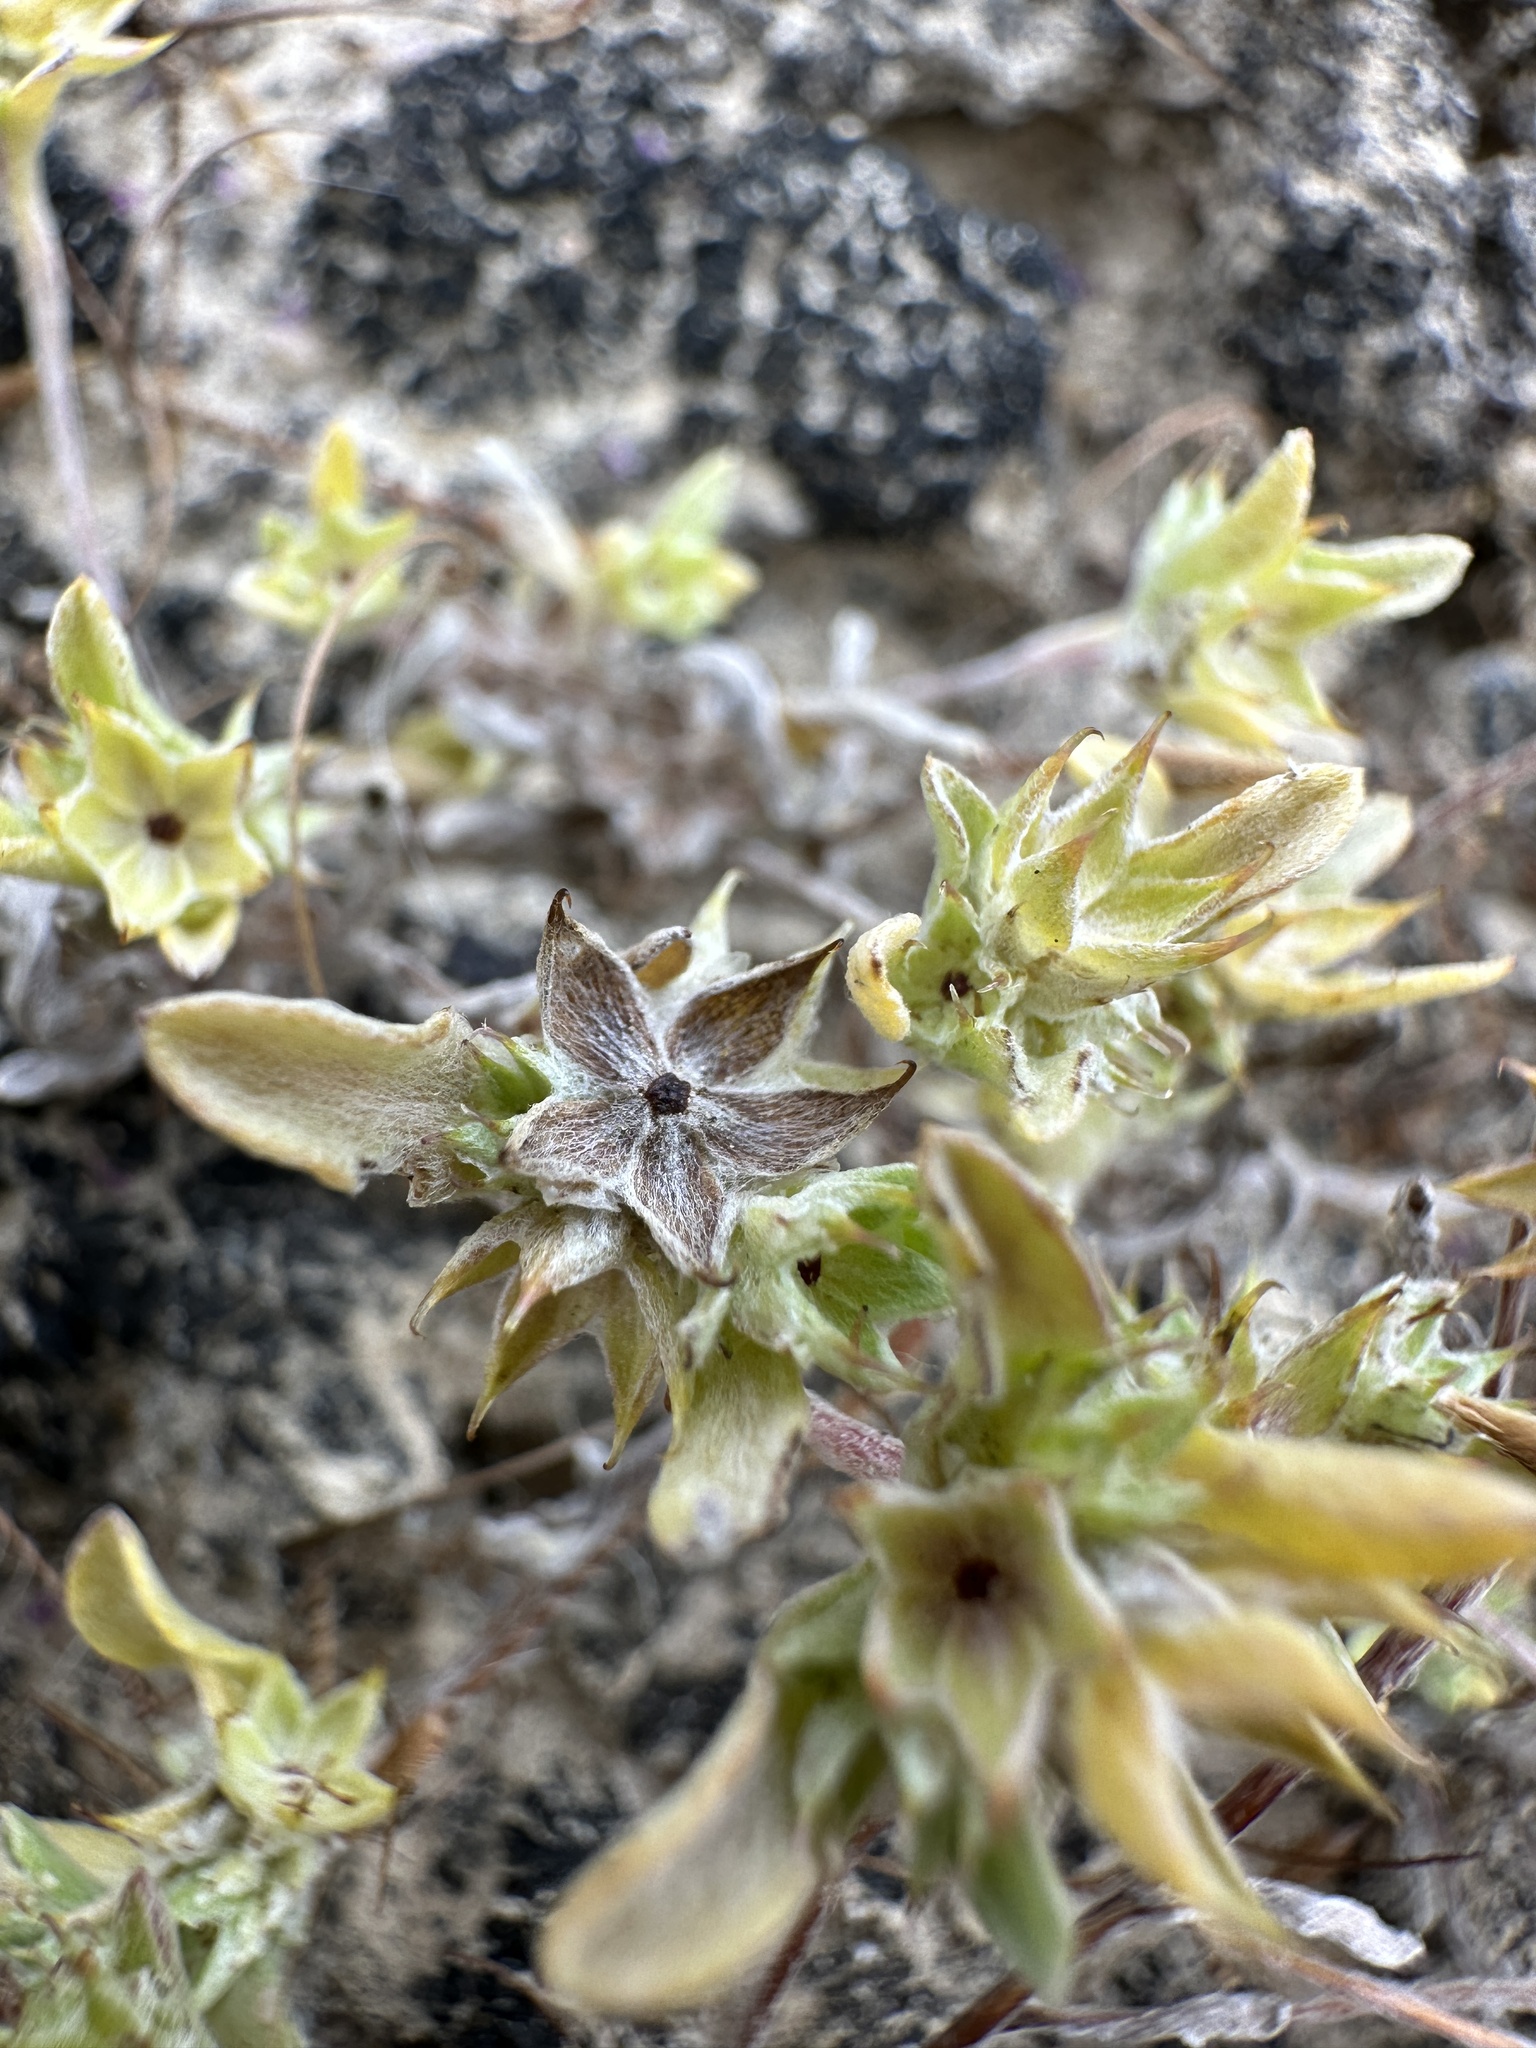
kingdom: Plantae
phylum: Tracheophyta
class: Magnoliopsida
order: Asterales
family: Asteraceae
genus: Ancistrocarphus
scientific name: Ancistrocarphus filagineus
